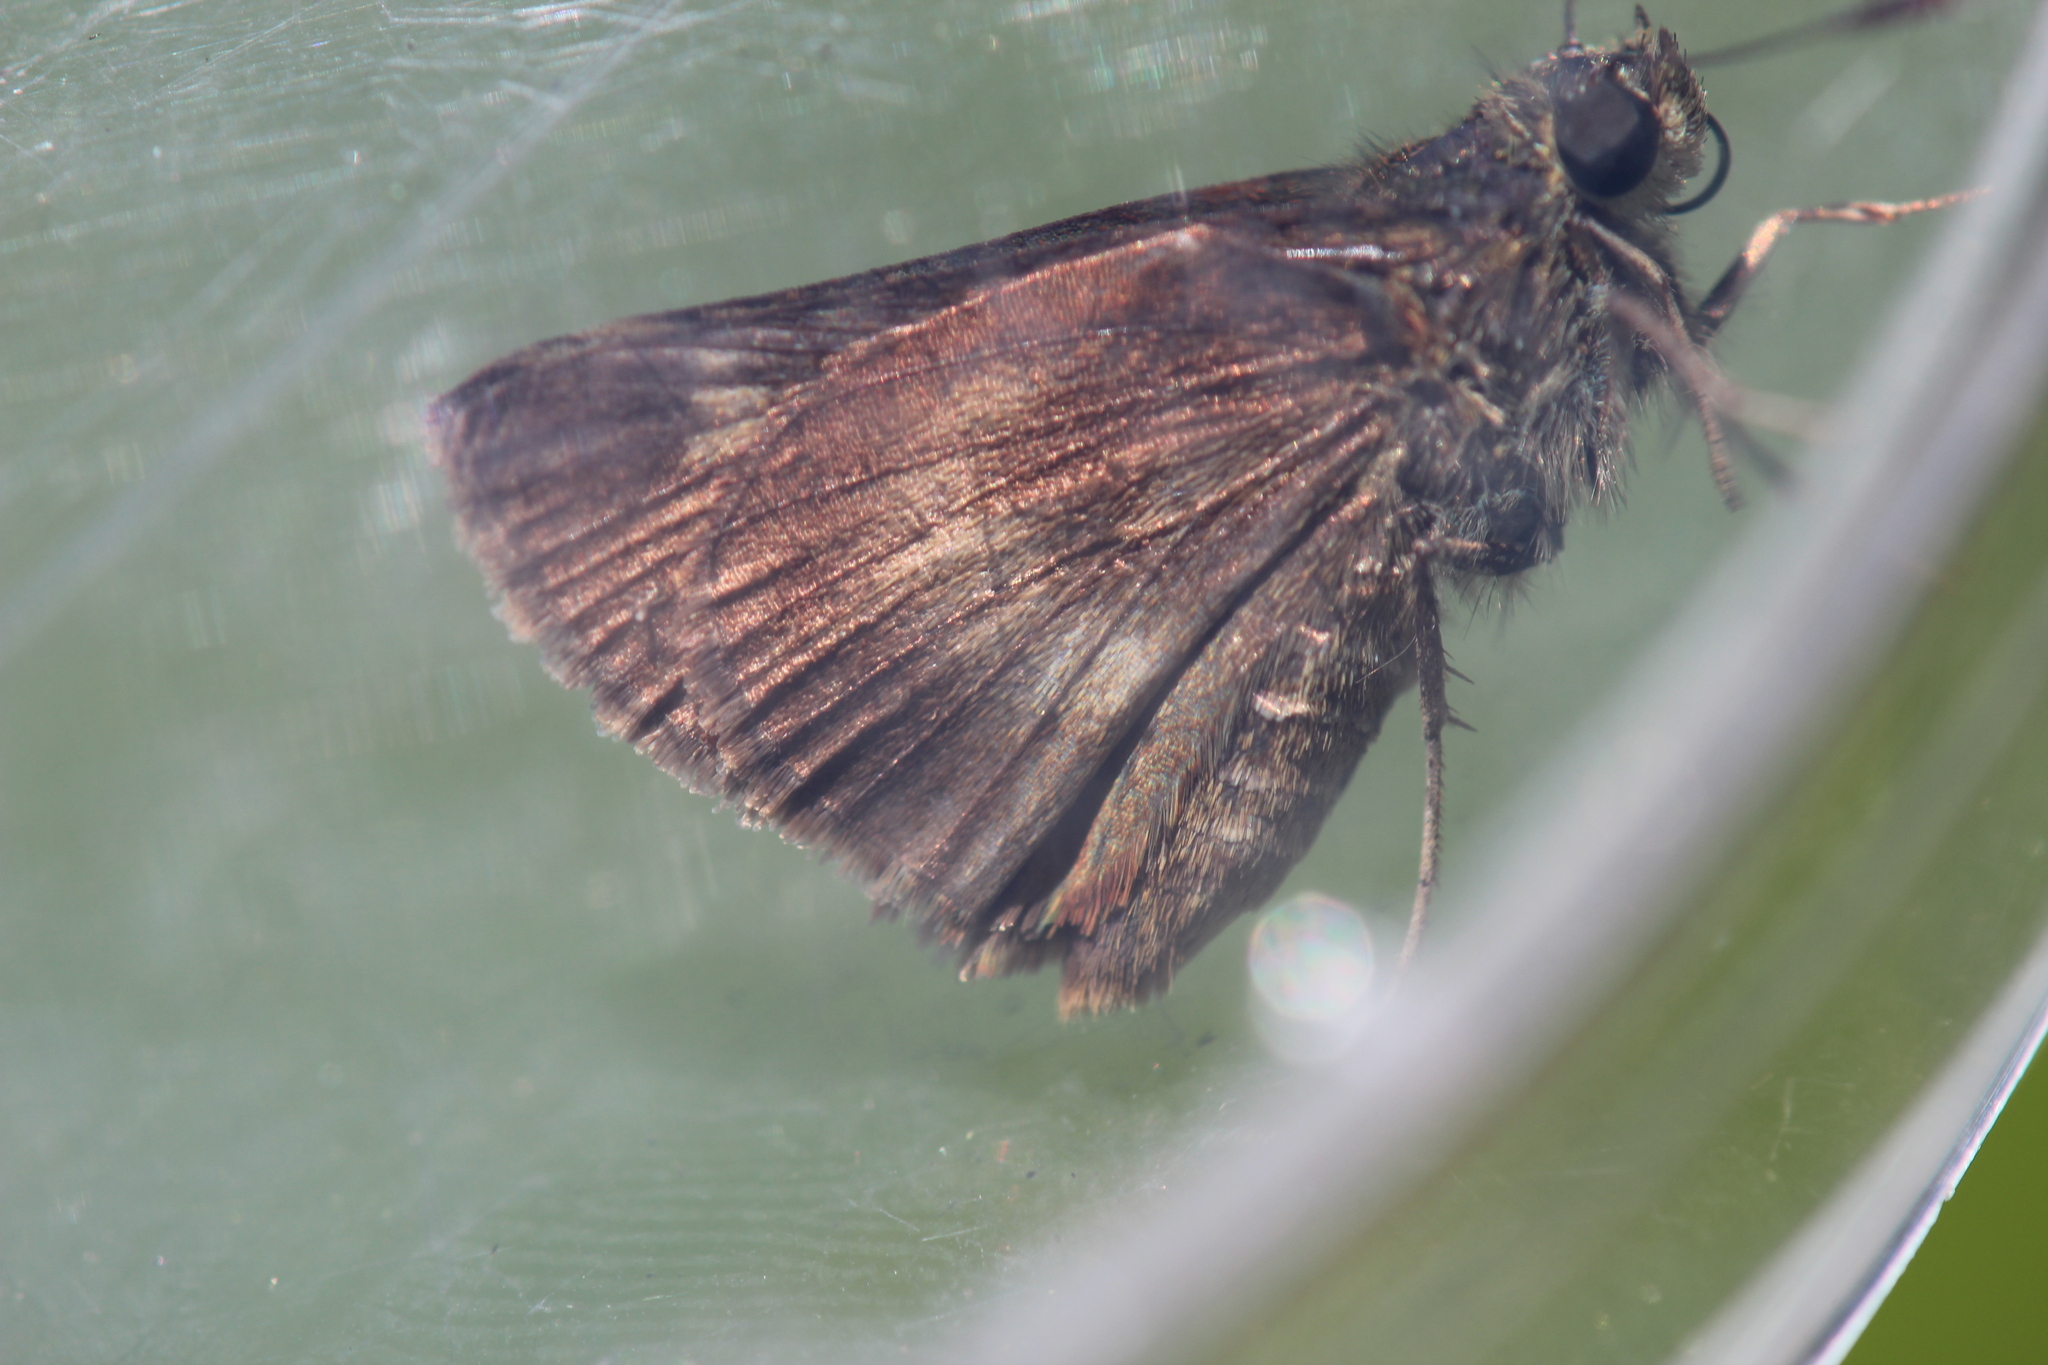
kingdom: Animalia
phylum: Arthropoda
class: Insecta
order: Lepidoptera
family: Hesperiidae
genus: Polites
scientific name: Polites egeremet
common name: Northern broken-dash
